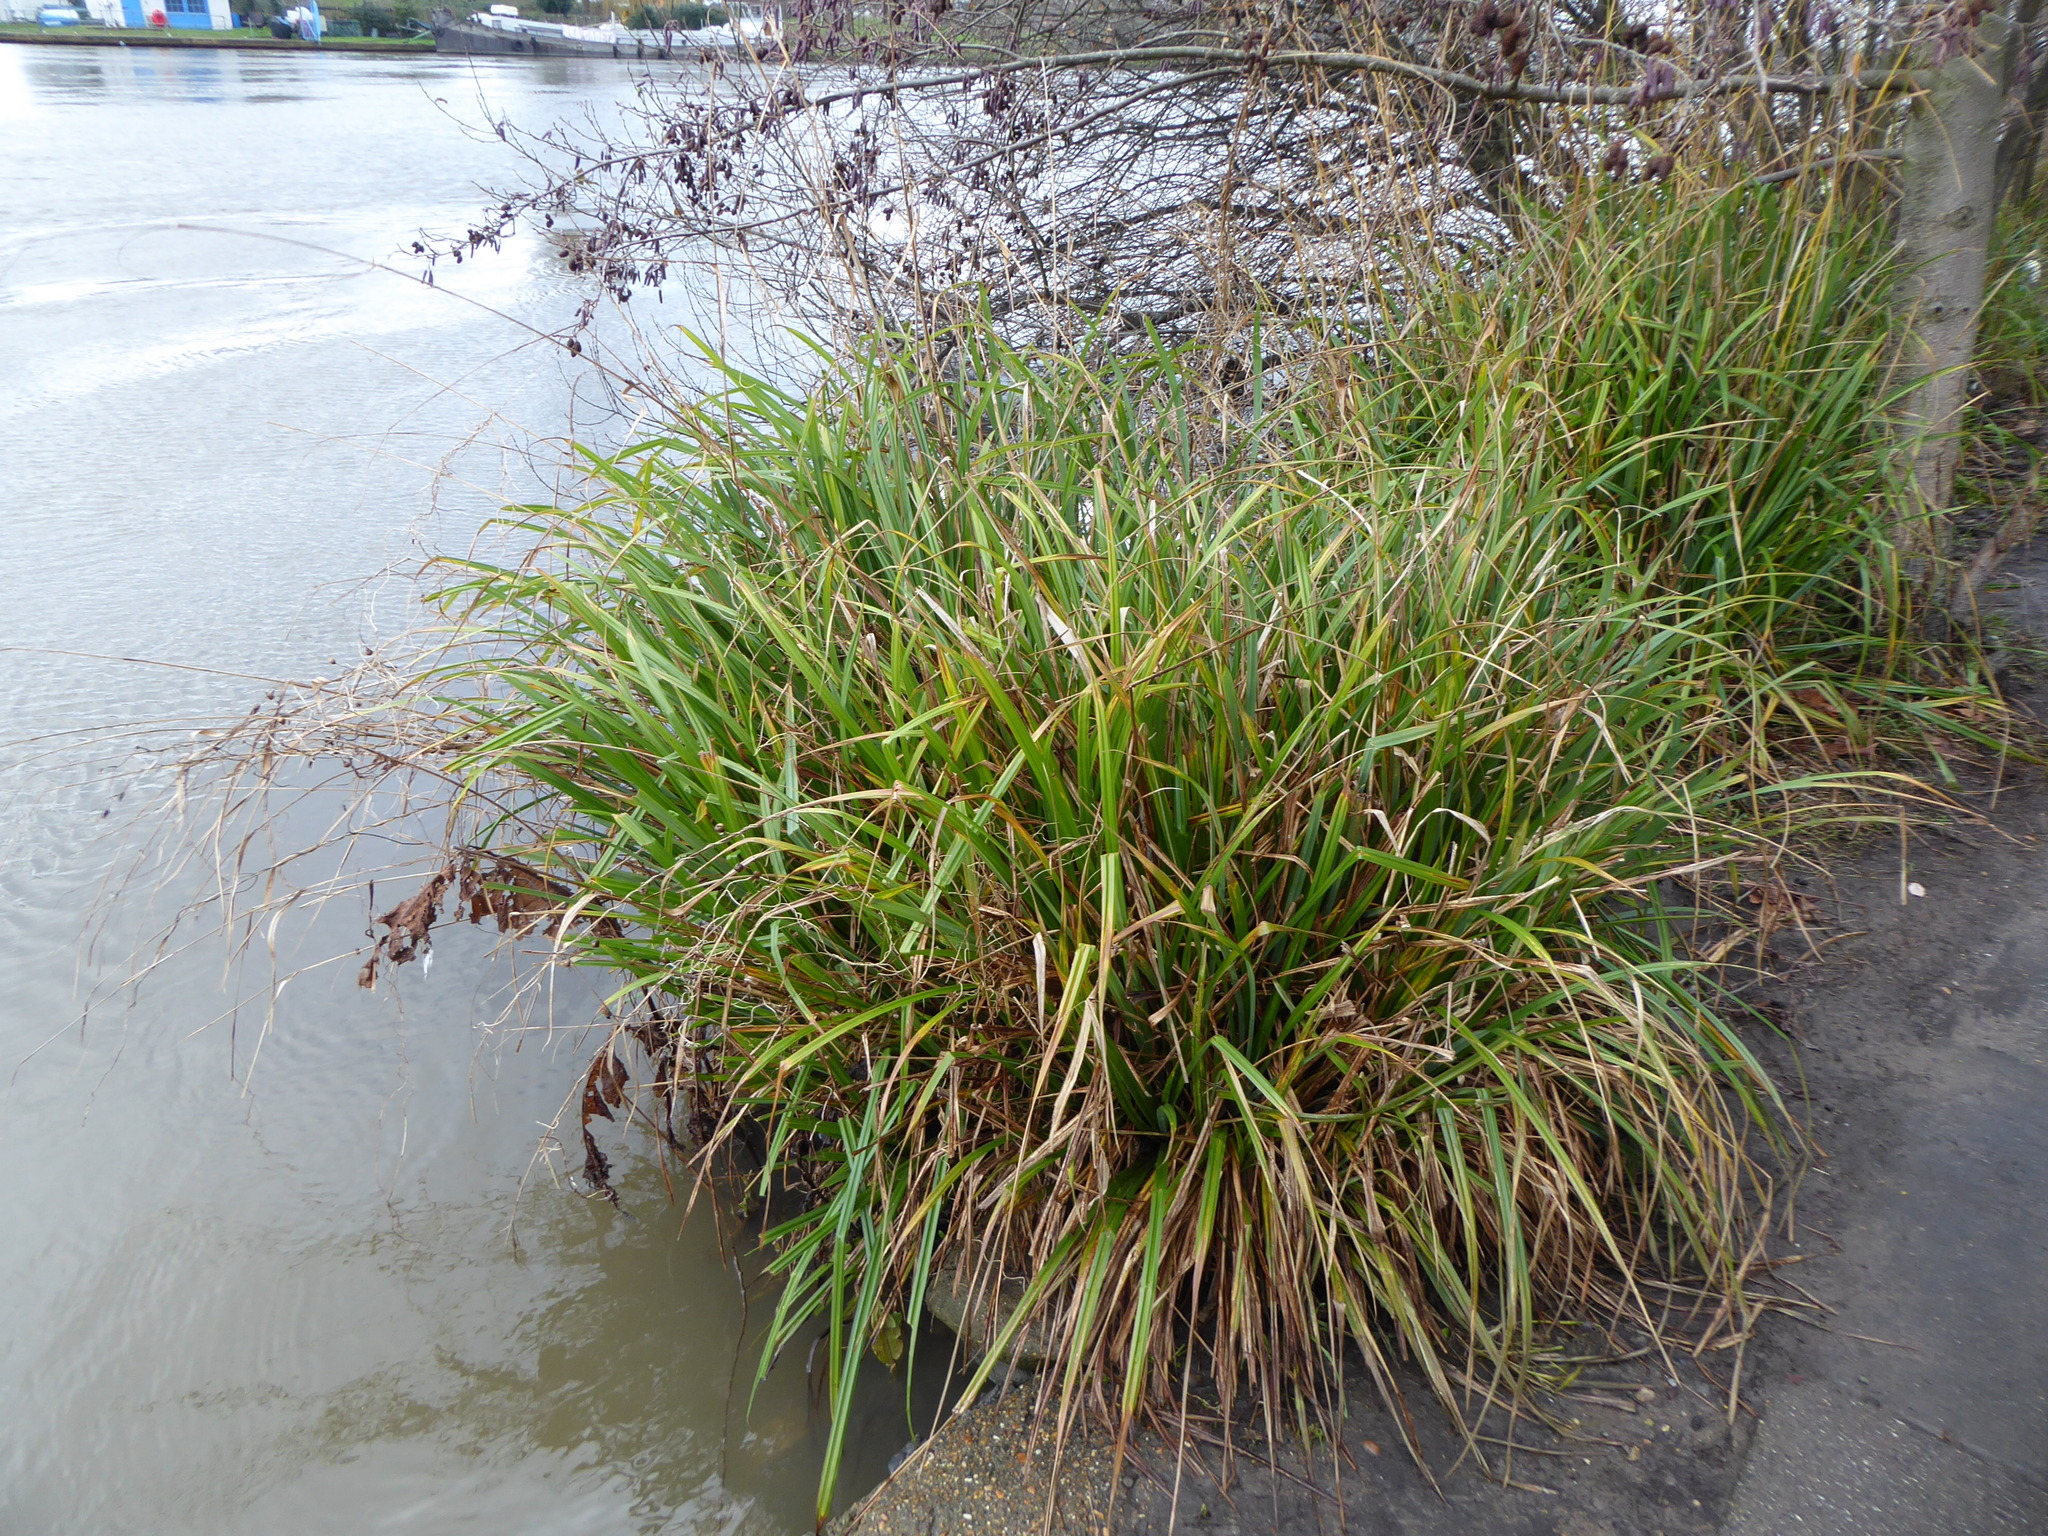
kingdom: Plantae
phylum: Tracheophyta
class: Liliopsida
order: Poales
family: Cyperaceae
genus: Carex
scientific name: Carex pendula
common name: Pendulous sedge
